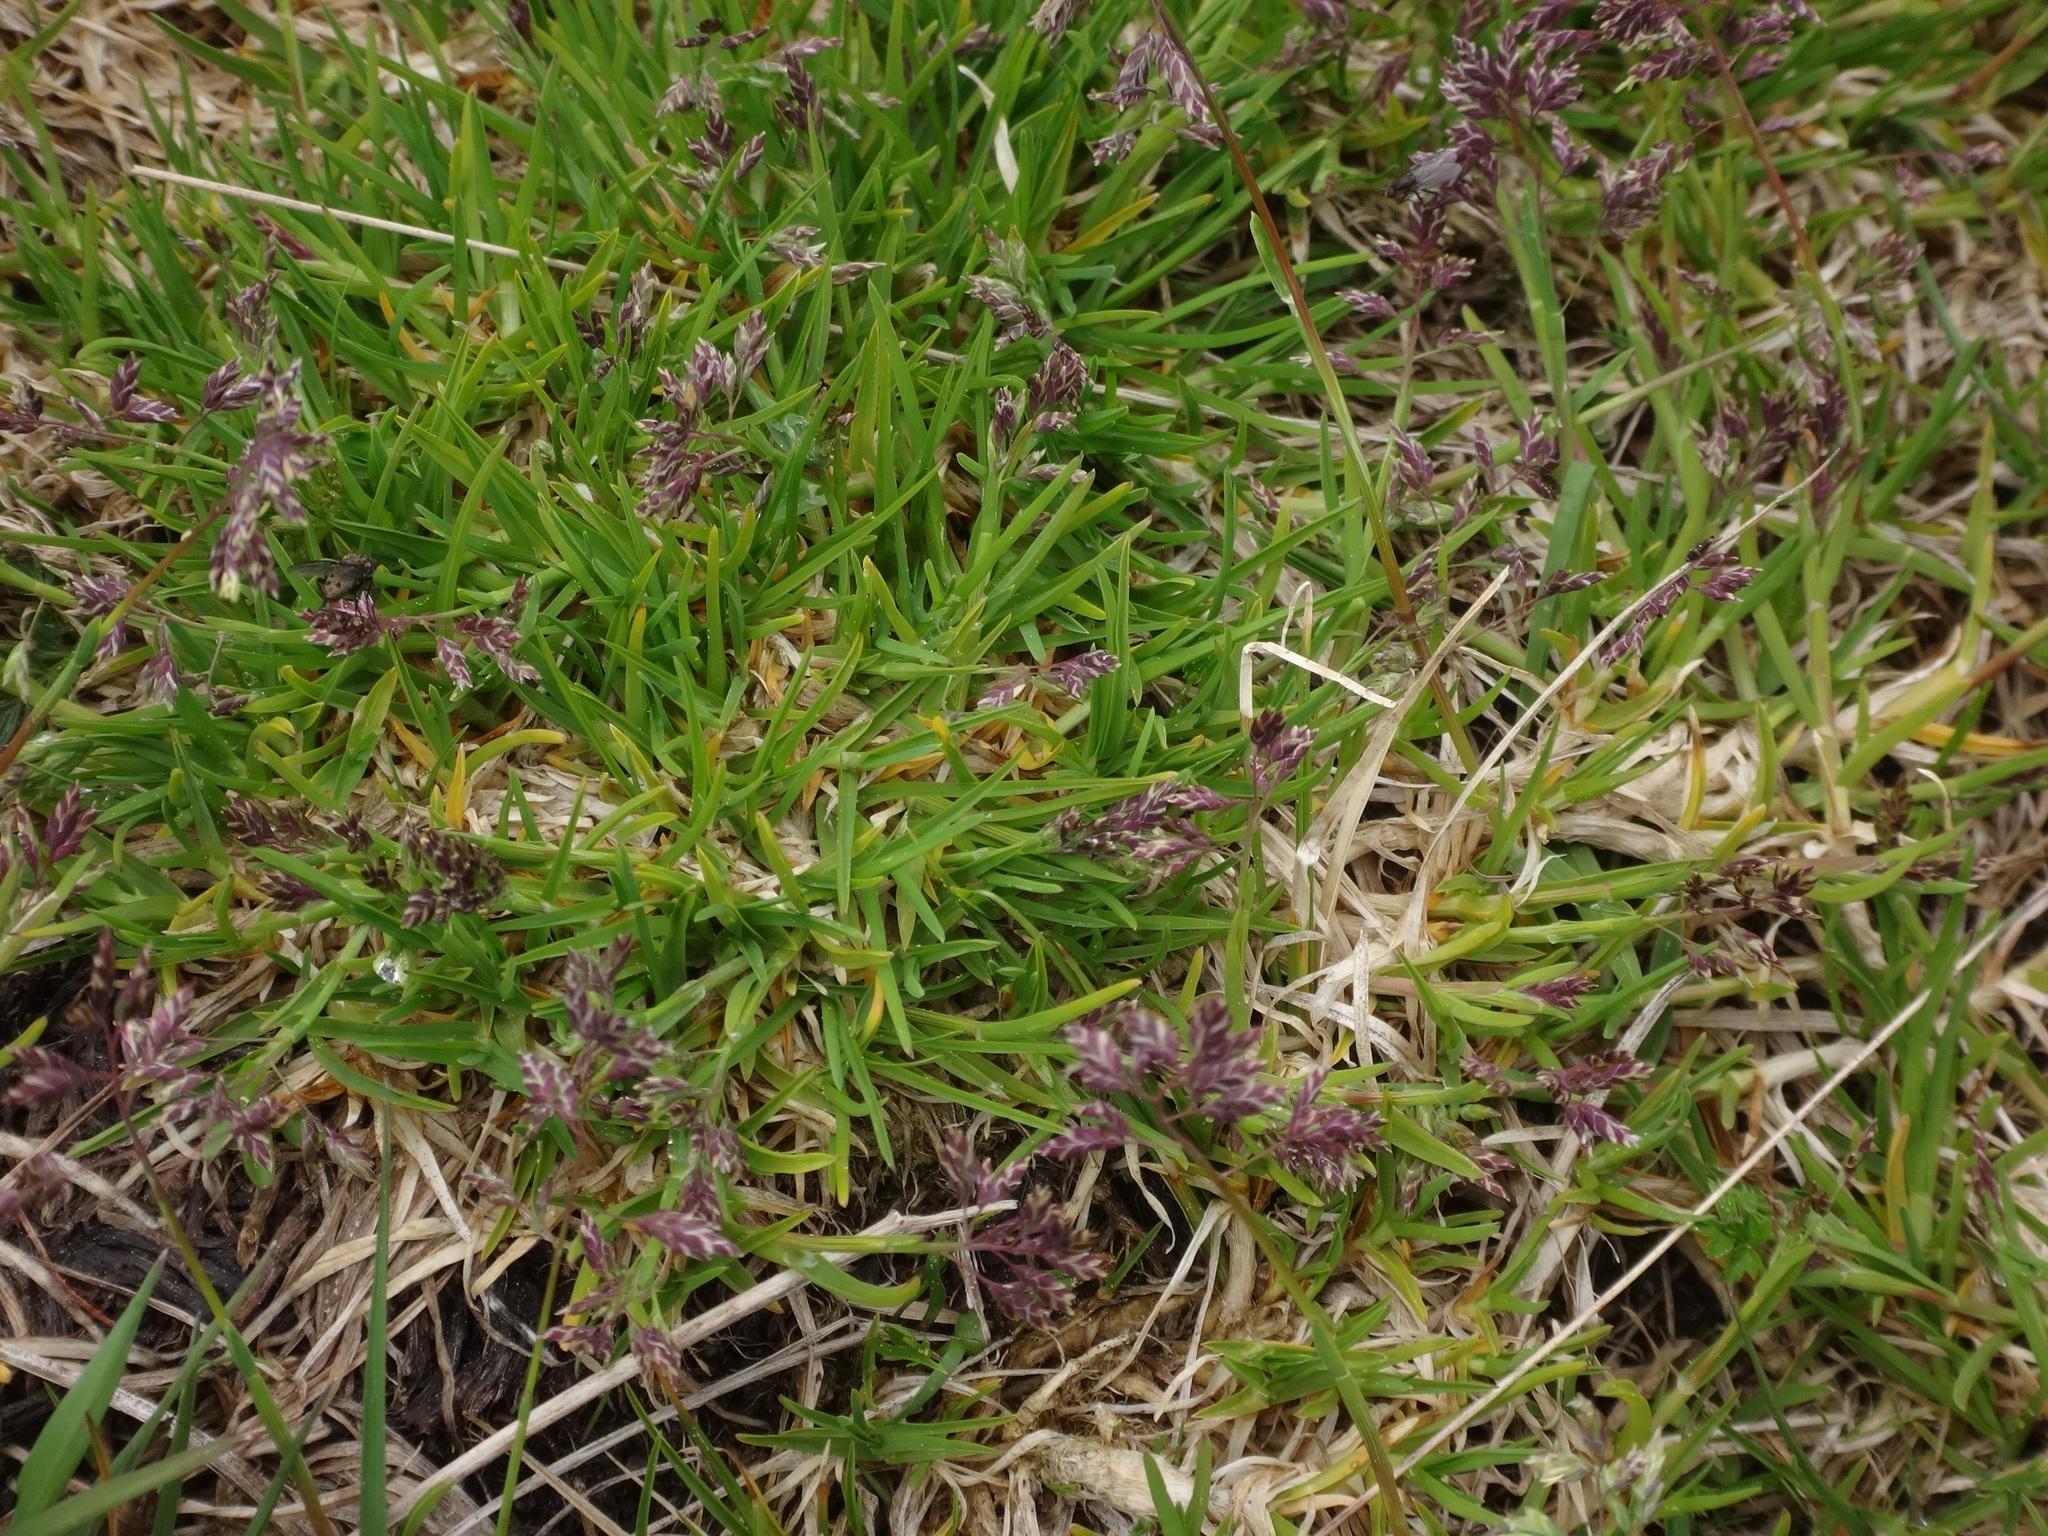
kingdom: Plantae
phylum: Tracheophyta
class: Liliopsida
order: Poales
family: Poaceae
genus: Poa
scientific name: Poa supina
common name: Supina bluegrass
